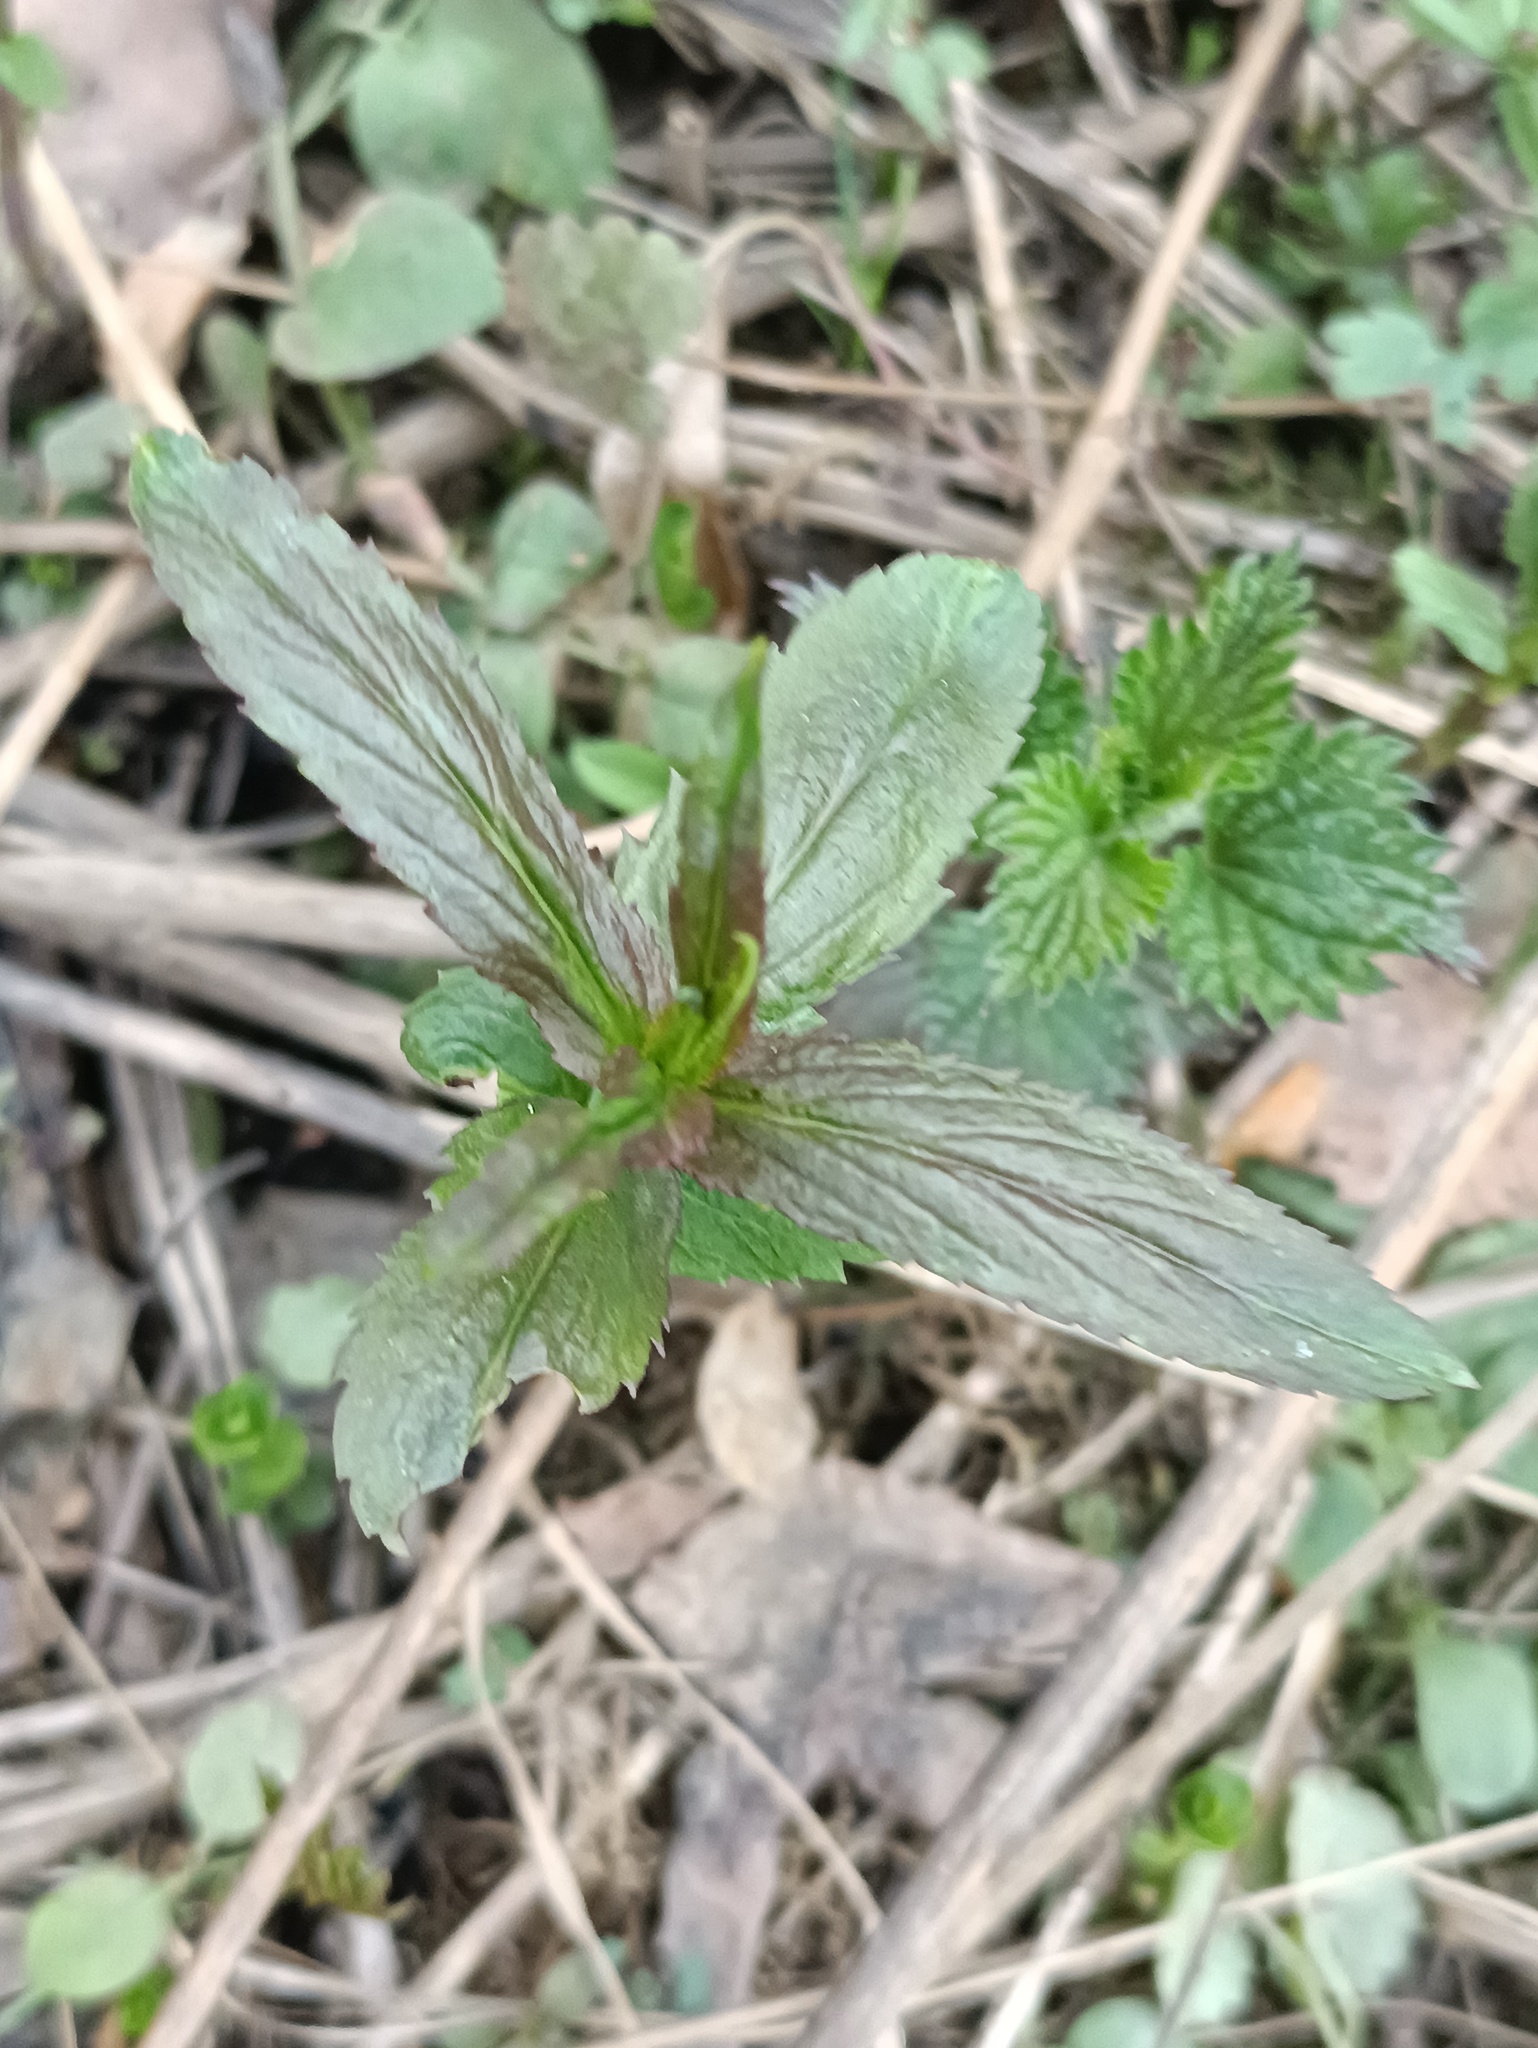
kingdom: Plantae
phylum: Tracheophyta
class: Magnoliopsida
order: Lamiales
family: Plantaginaceae
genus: Veronica
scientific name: Veronica longifolia
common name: Garden speedwell
